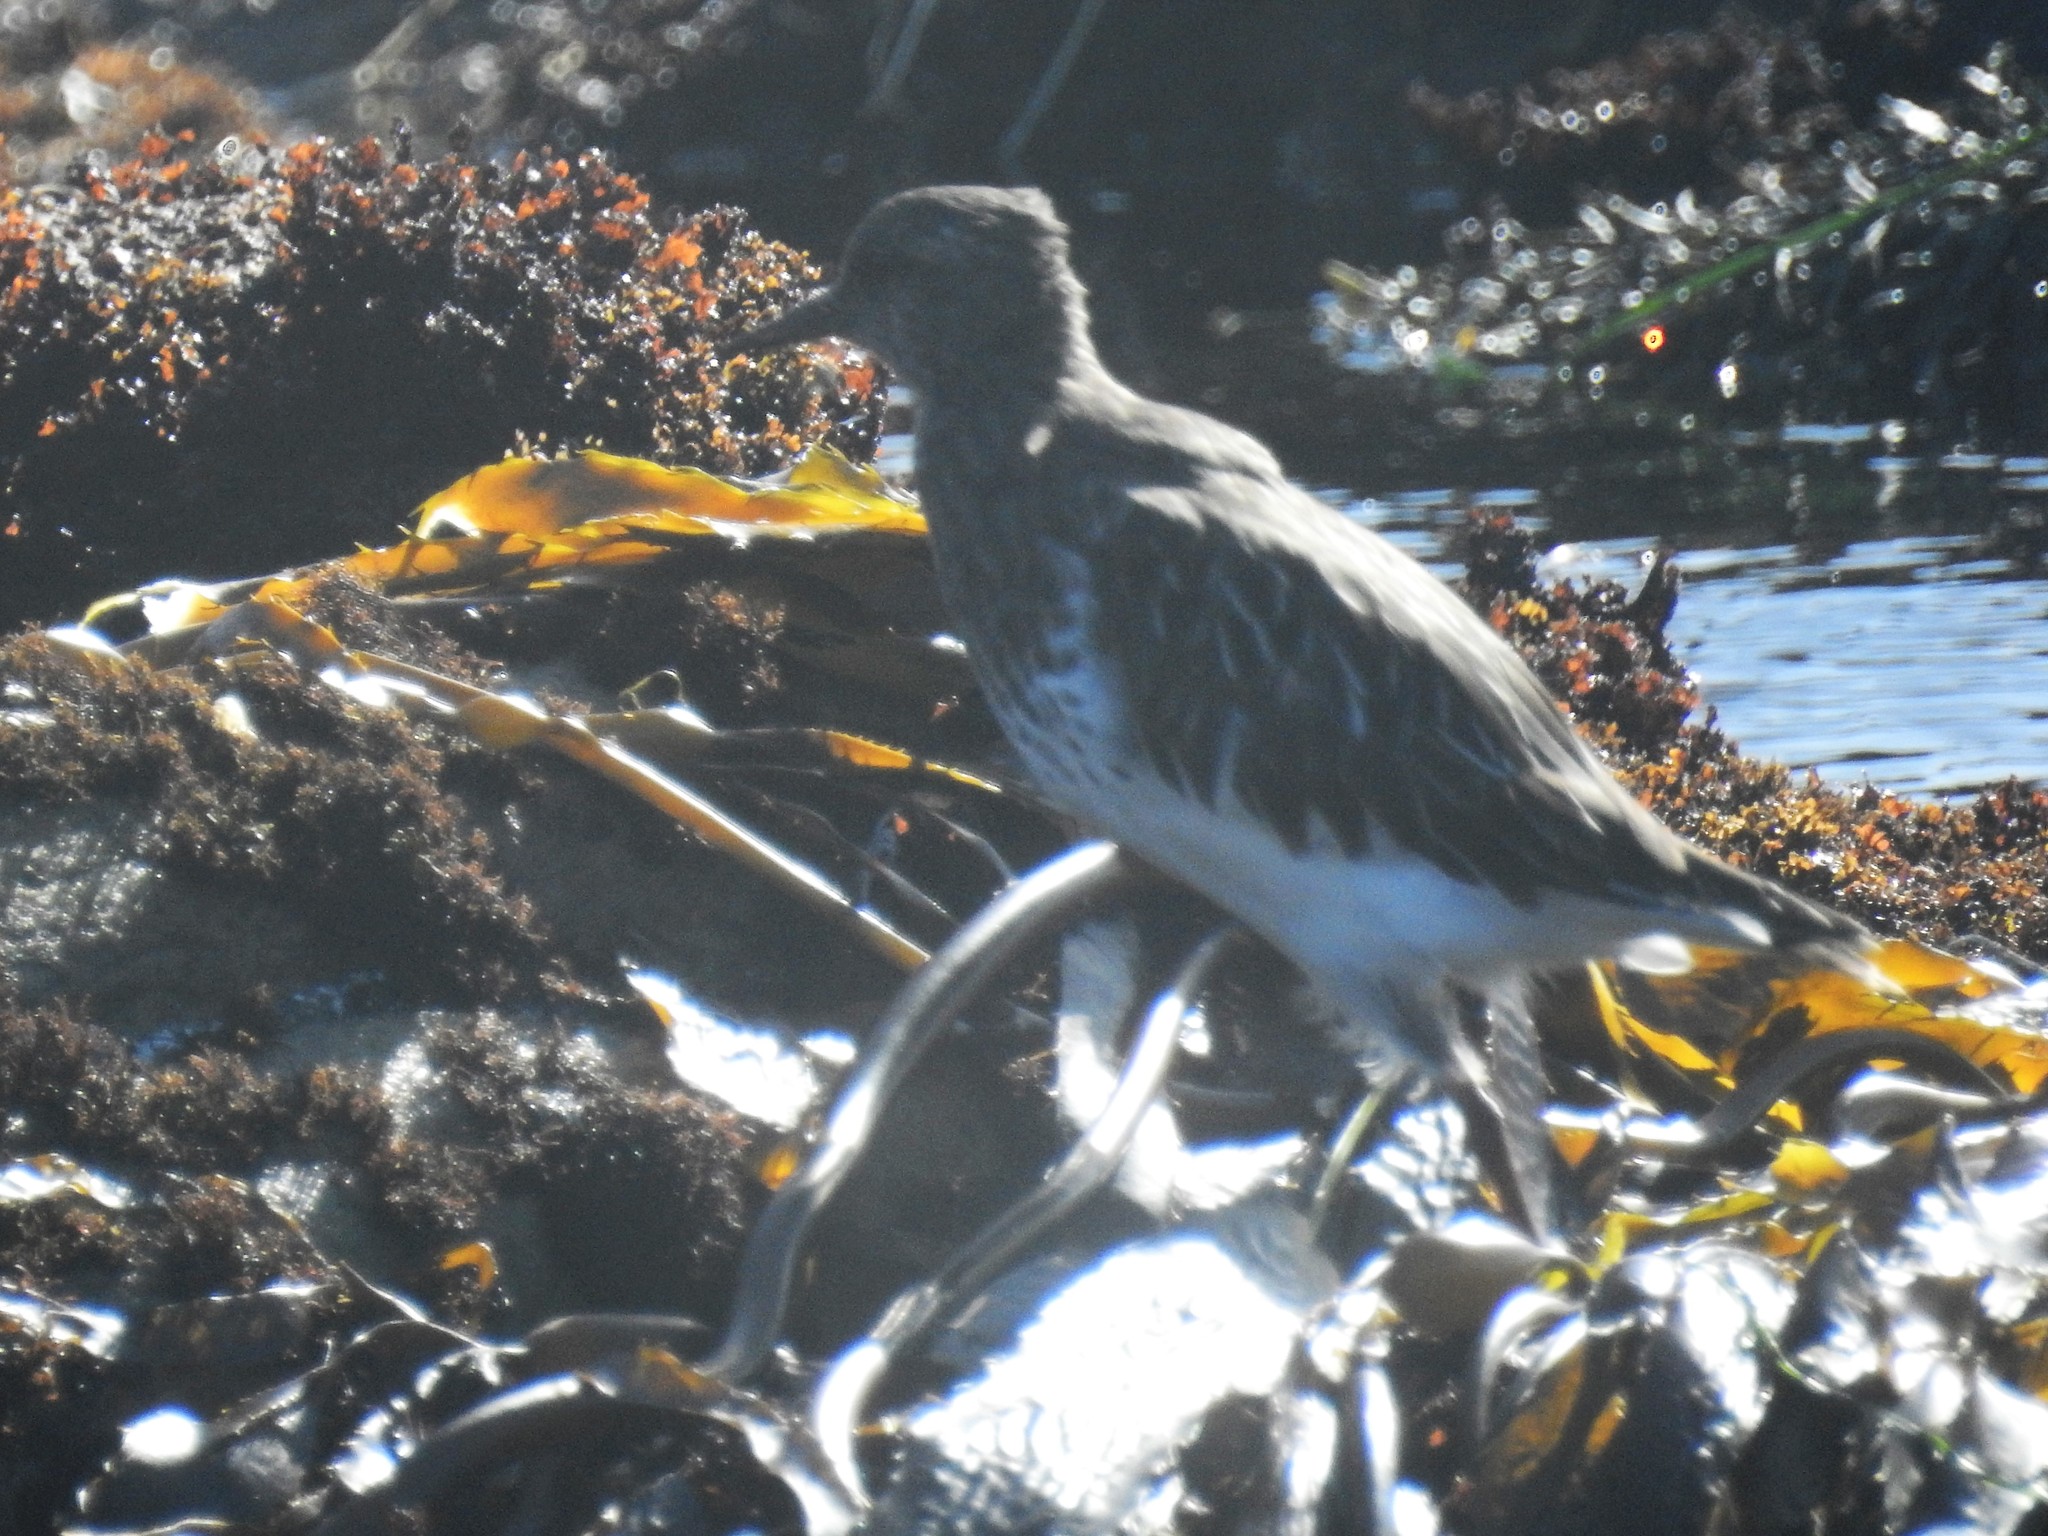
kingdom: Animalia
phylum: Chordata
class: Aves
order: Charadriiformes
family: Scolopacidae
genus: Arenaria
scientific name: Arenaria melanocephala
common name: Black turnstone
